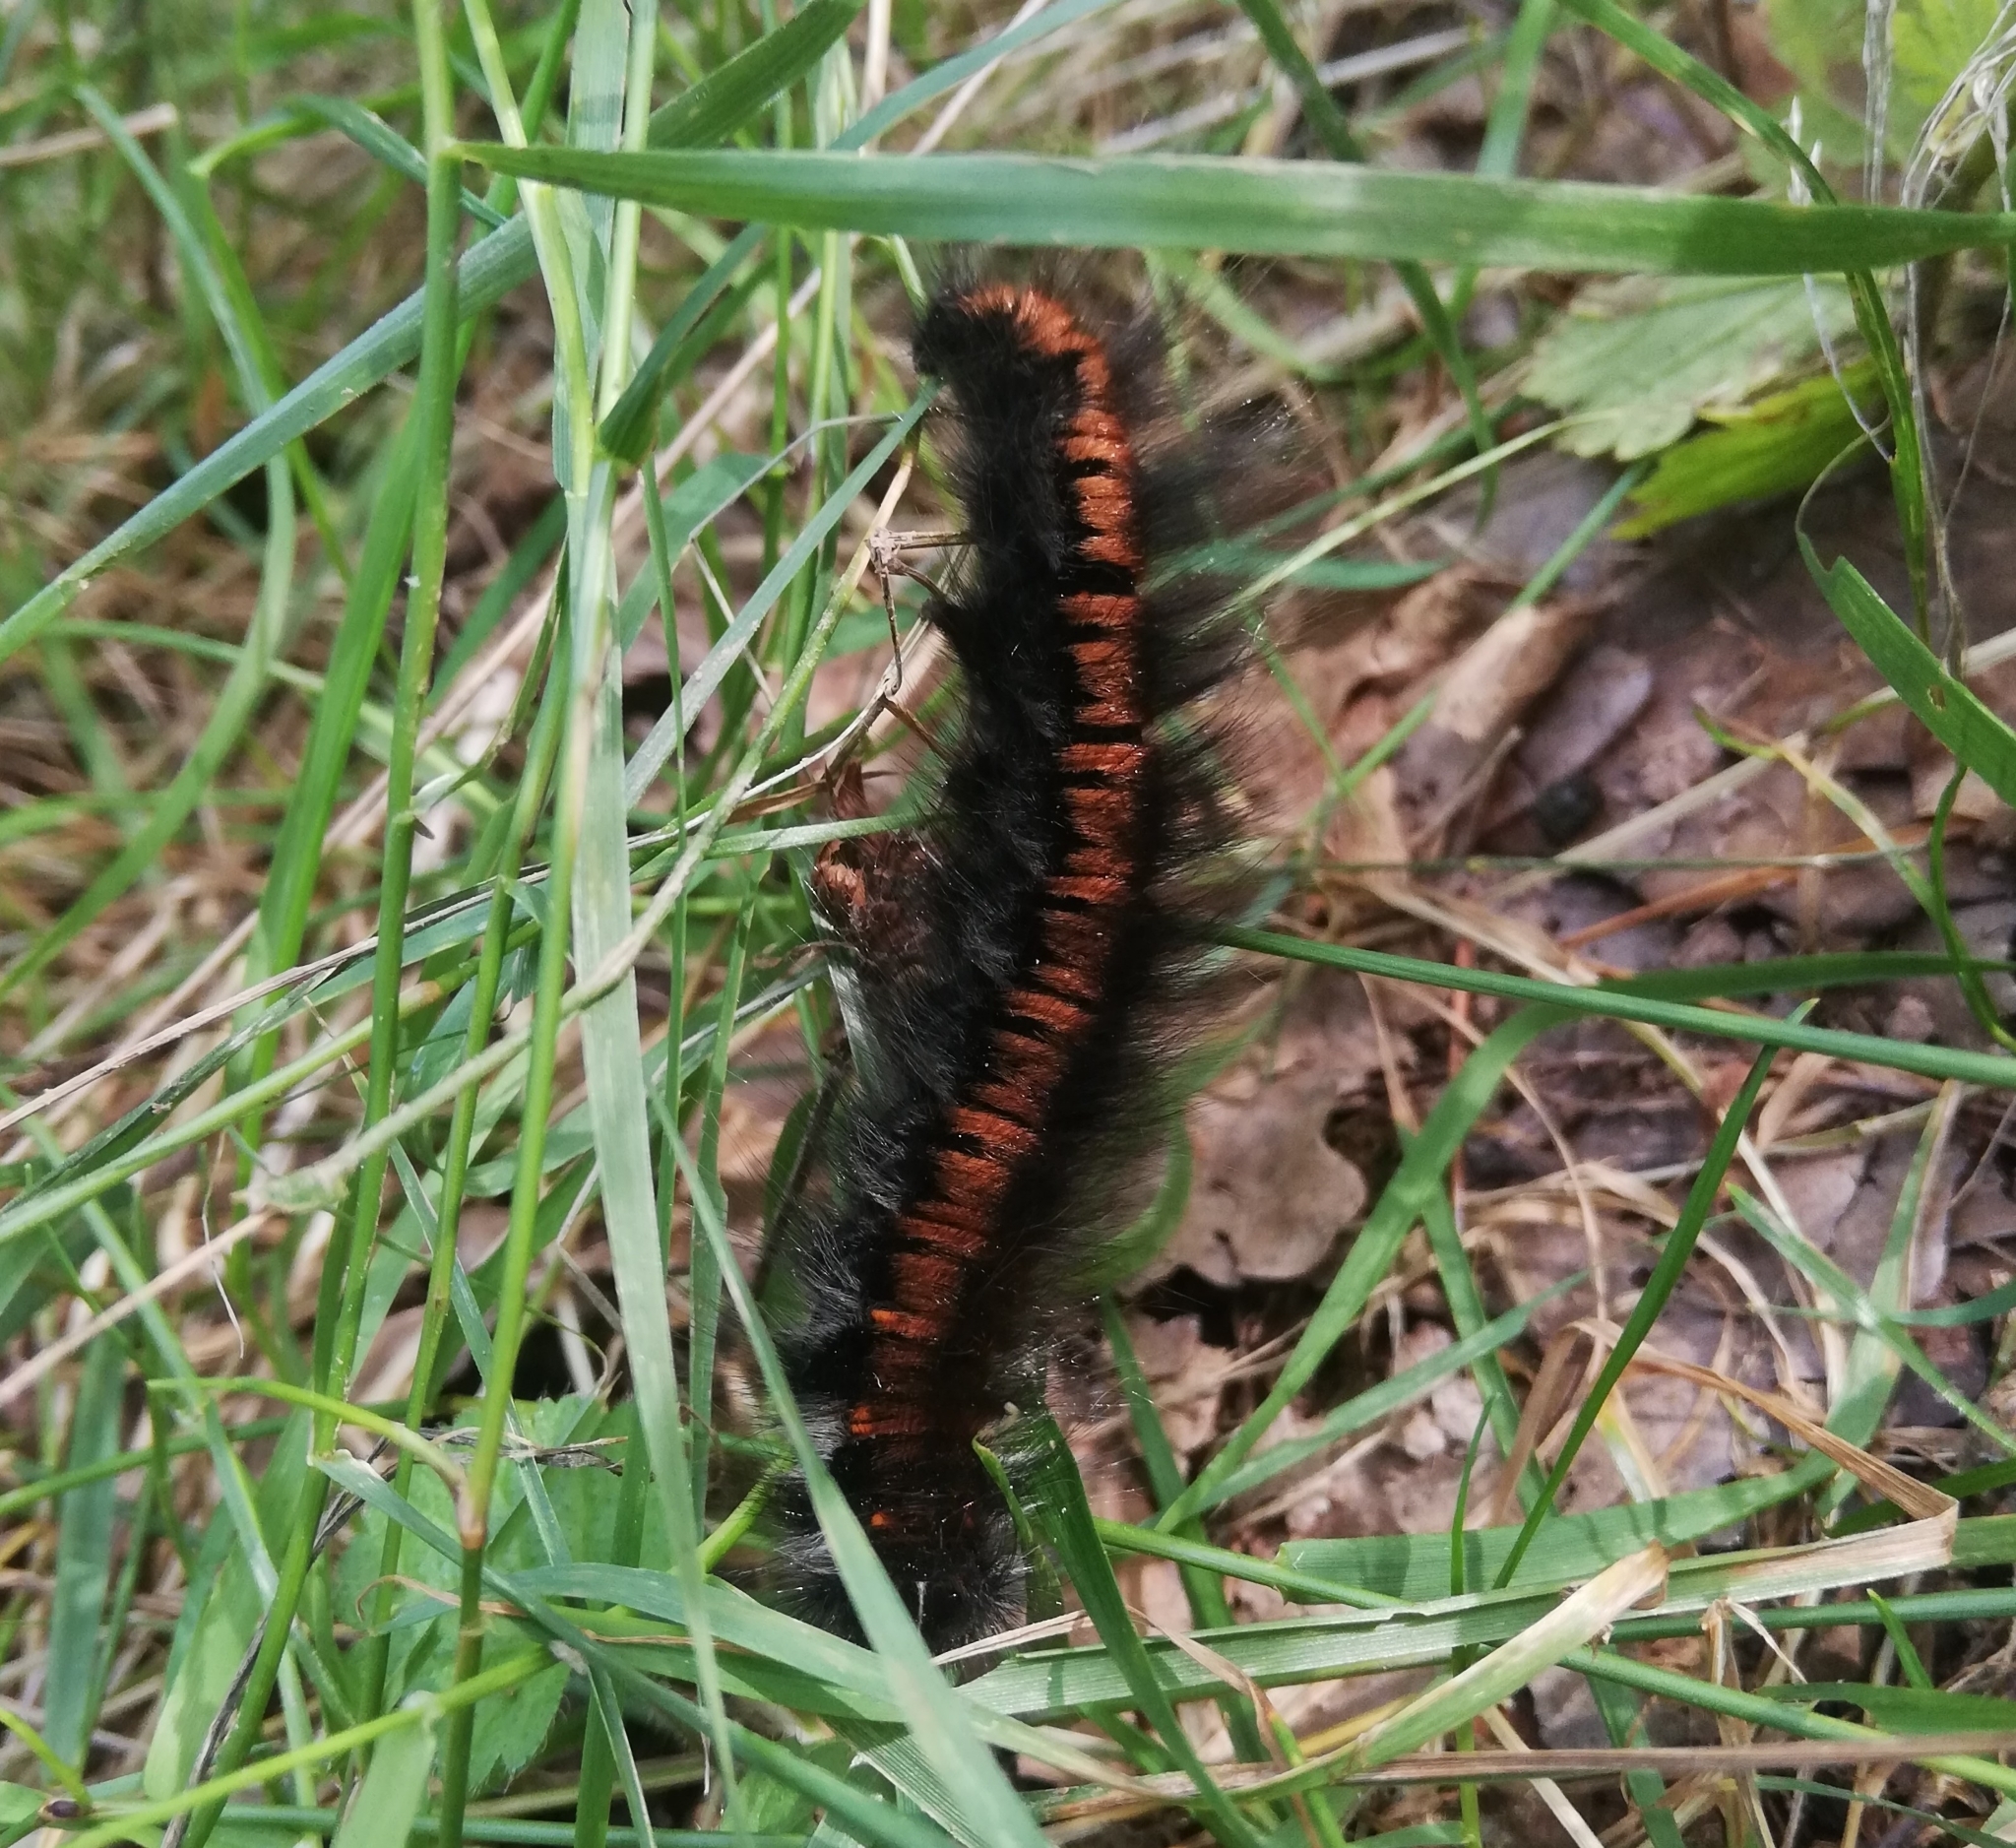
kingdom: Animalia
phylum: Arthropoda
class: Insecta
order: Lepidoptera
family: Lasiocampidae
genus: Macrothylacia
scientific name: Macrothylacia rubi
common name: Fox moth
